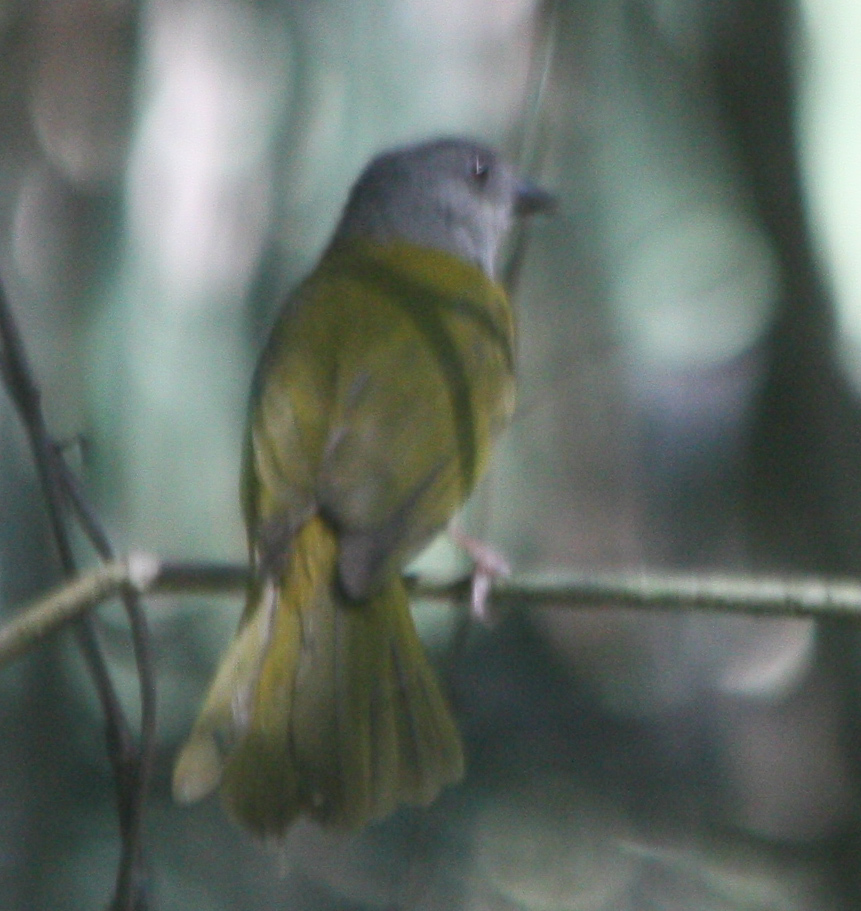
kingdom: Animalia
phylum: Chordata
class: Aves
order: Passeriformes
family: Thraupidae
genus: Eucometis
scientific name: Eucometis penicillata
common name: Grey-headed tanager
